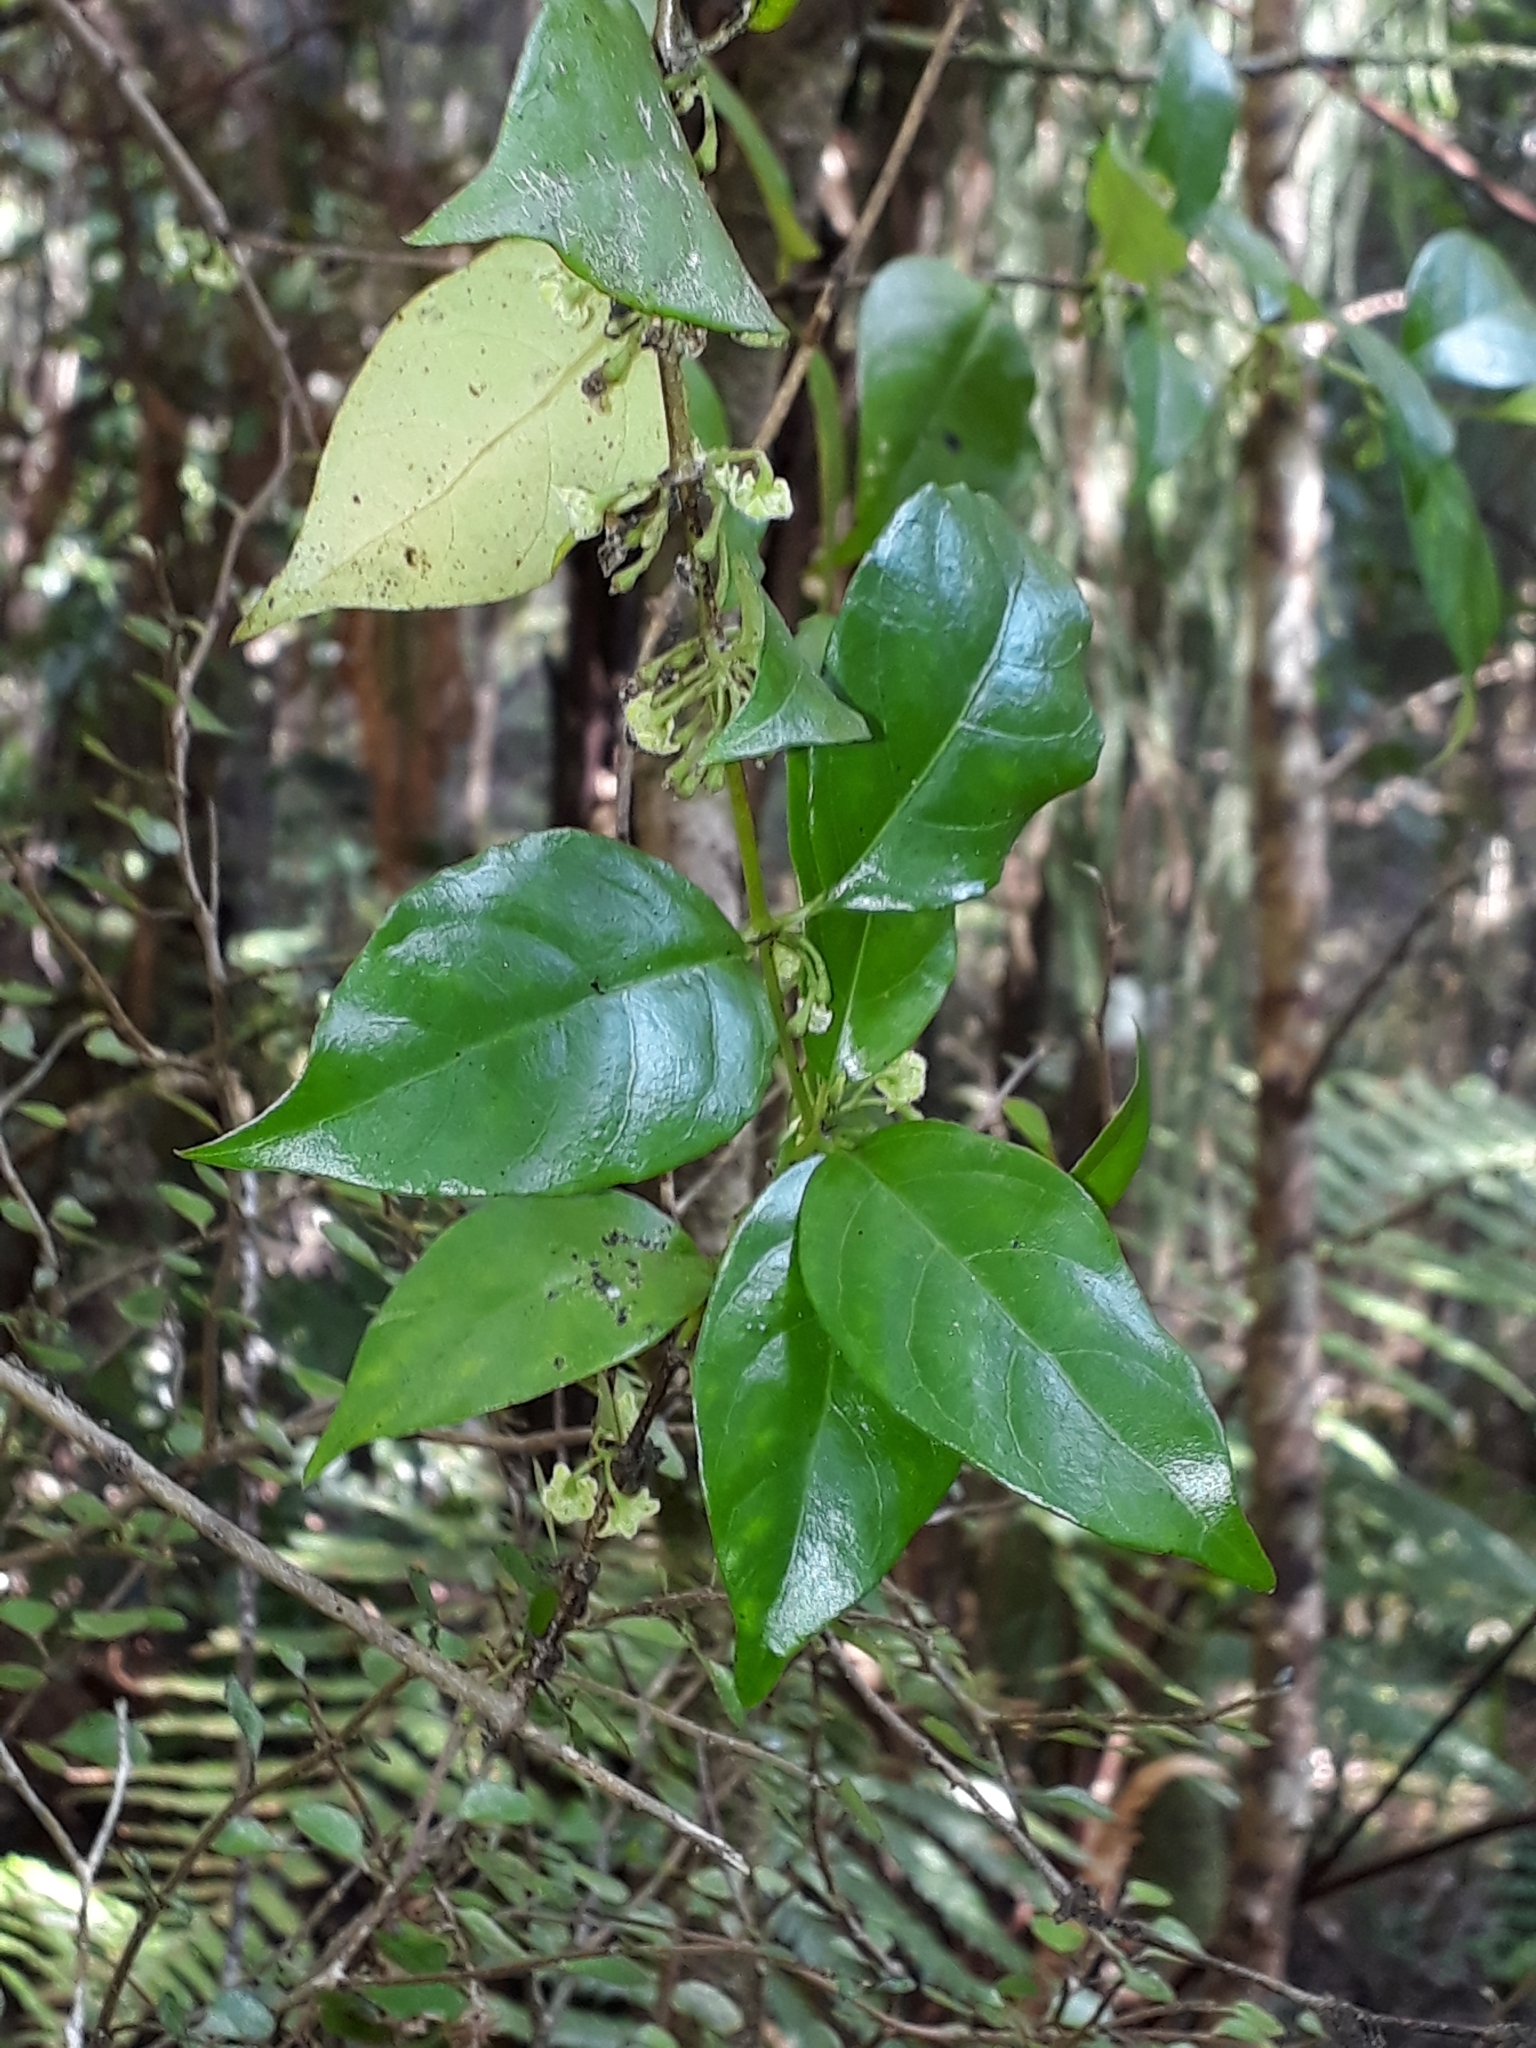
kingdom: Plantae
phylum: Tracheophyta
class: Magnoliopsida
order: Gentianales
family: Loganiaceae
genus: Geniostoma
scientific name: Geniostoma ligustrifolium
